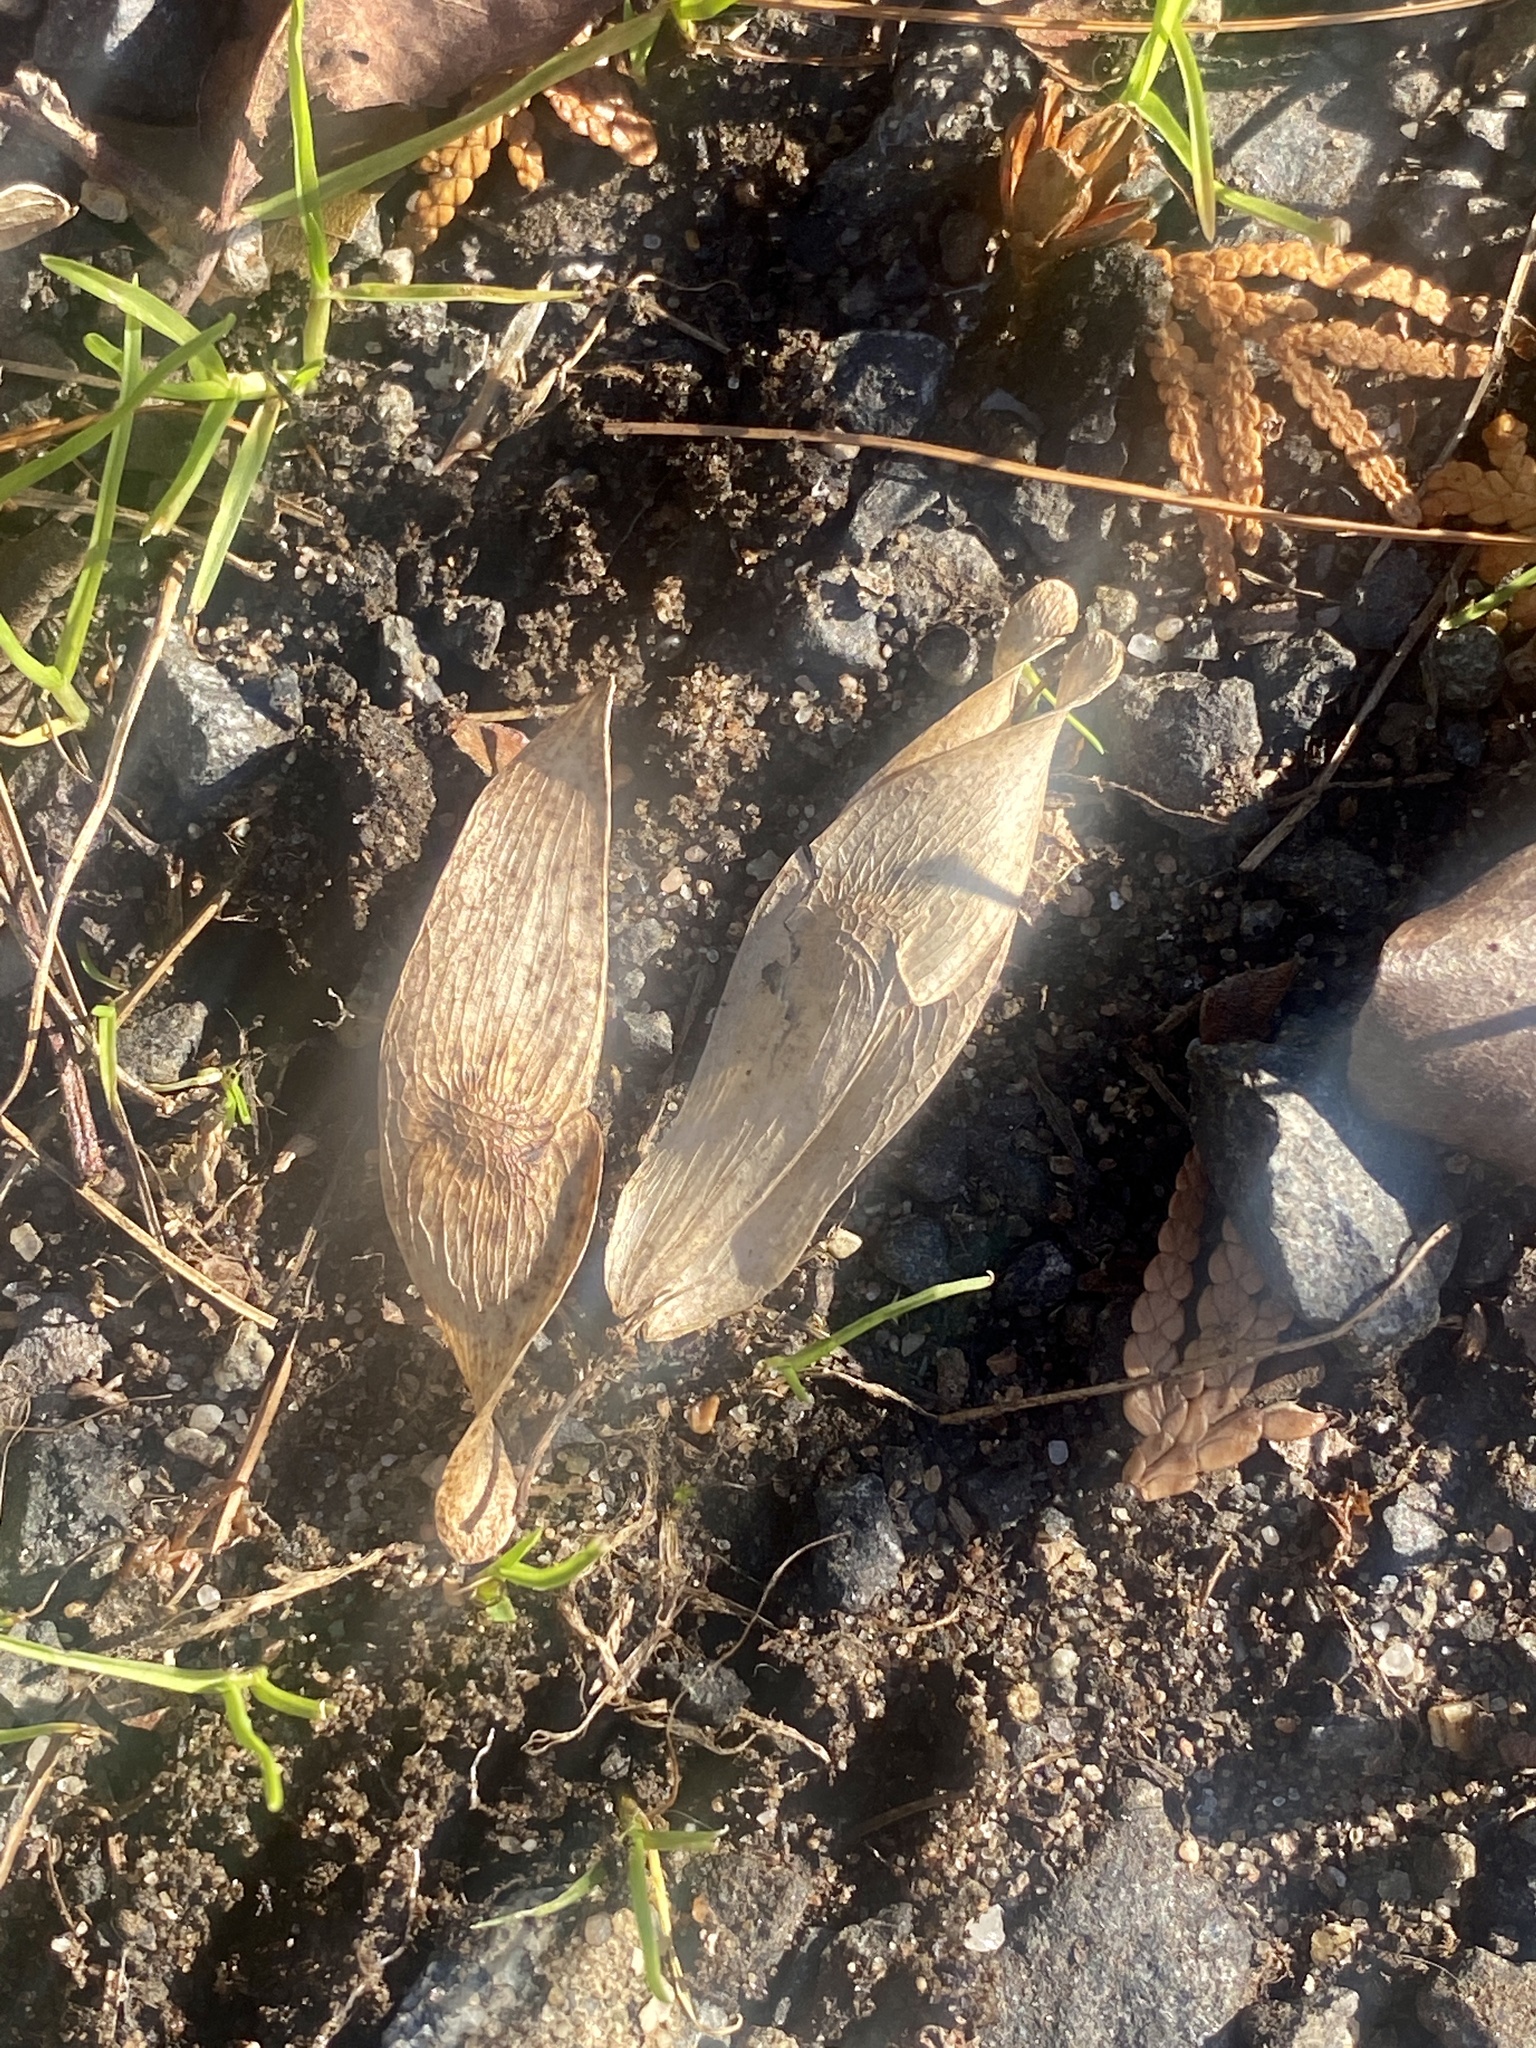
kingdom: Plantae
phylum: Tracheophyta
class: Magnoliopsida
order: Sapindales
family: Simaroubaceae
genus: Ailanthus
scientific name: Ailanthus altissima
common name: Tree-of-heaven
